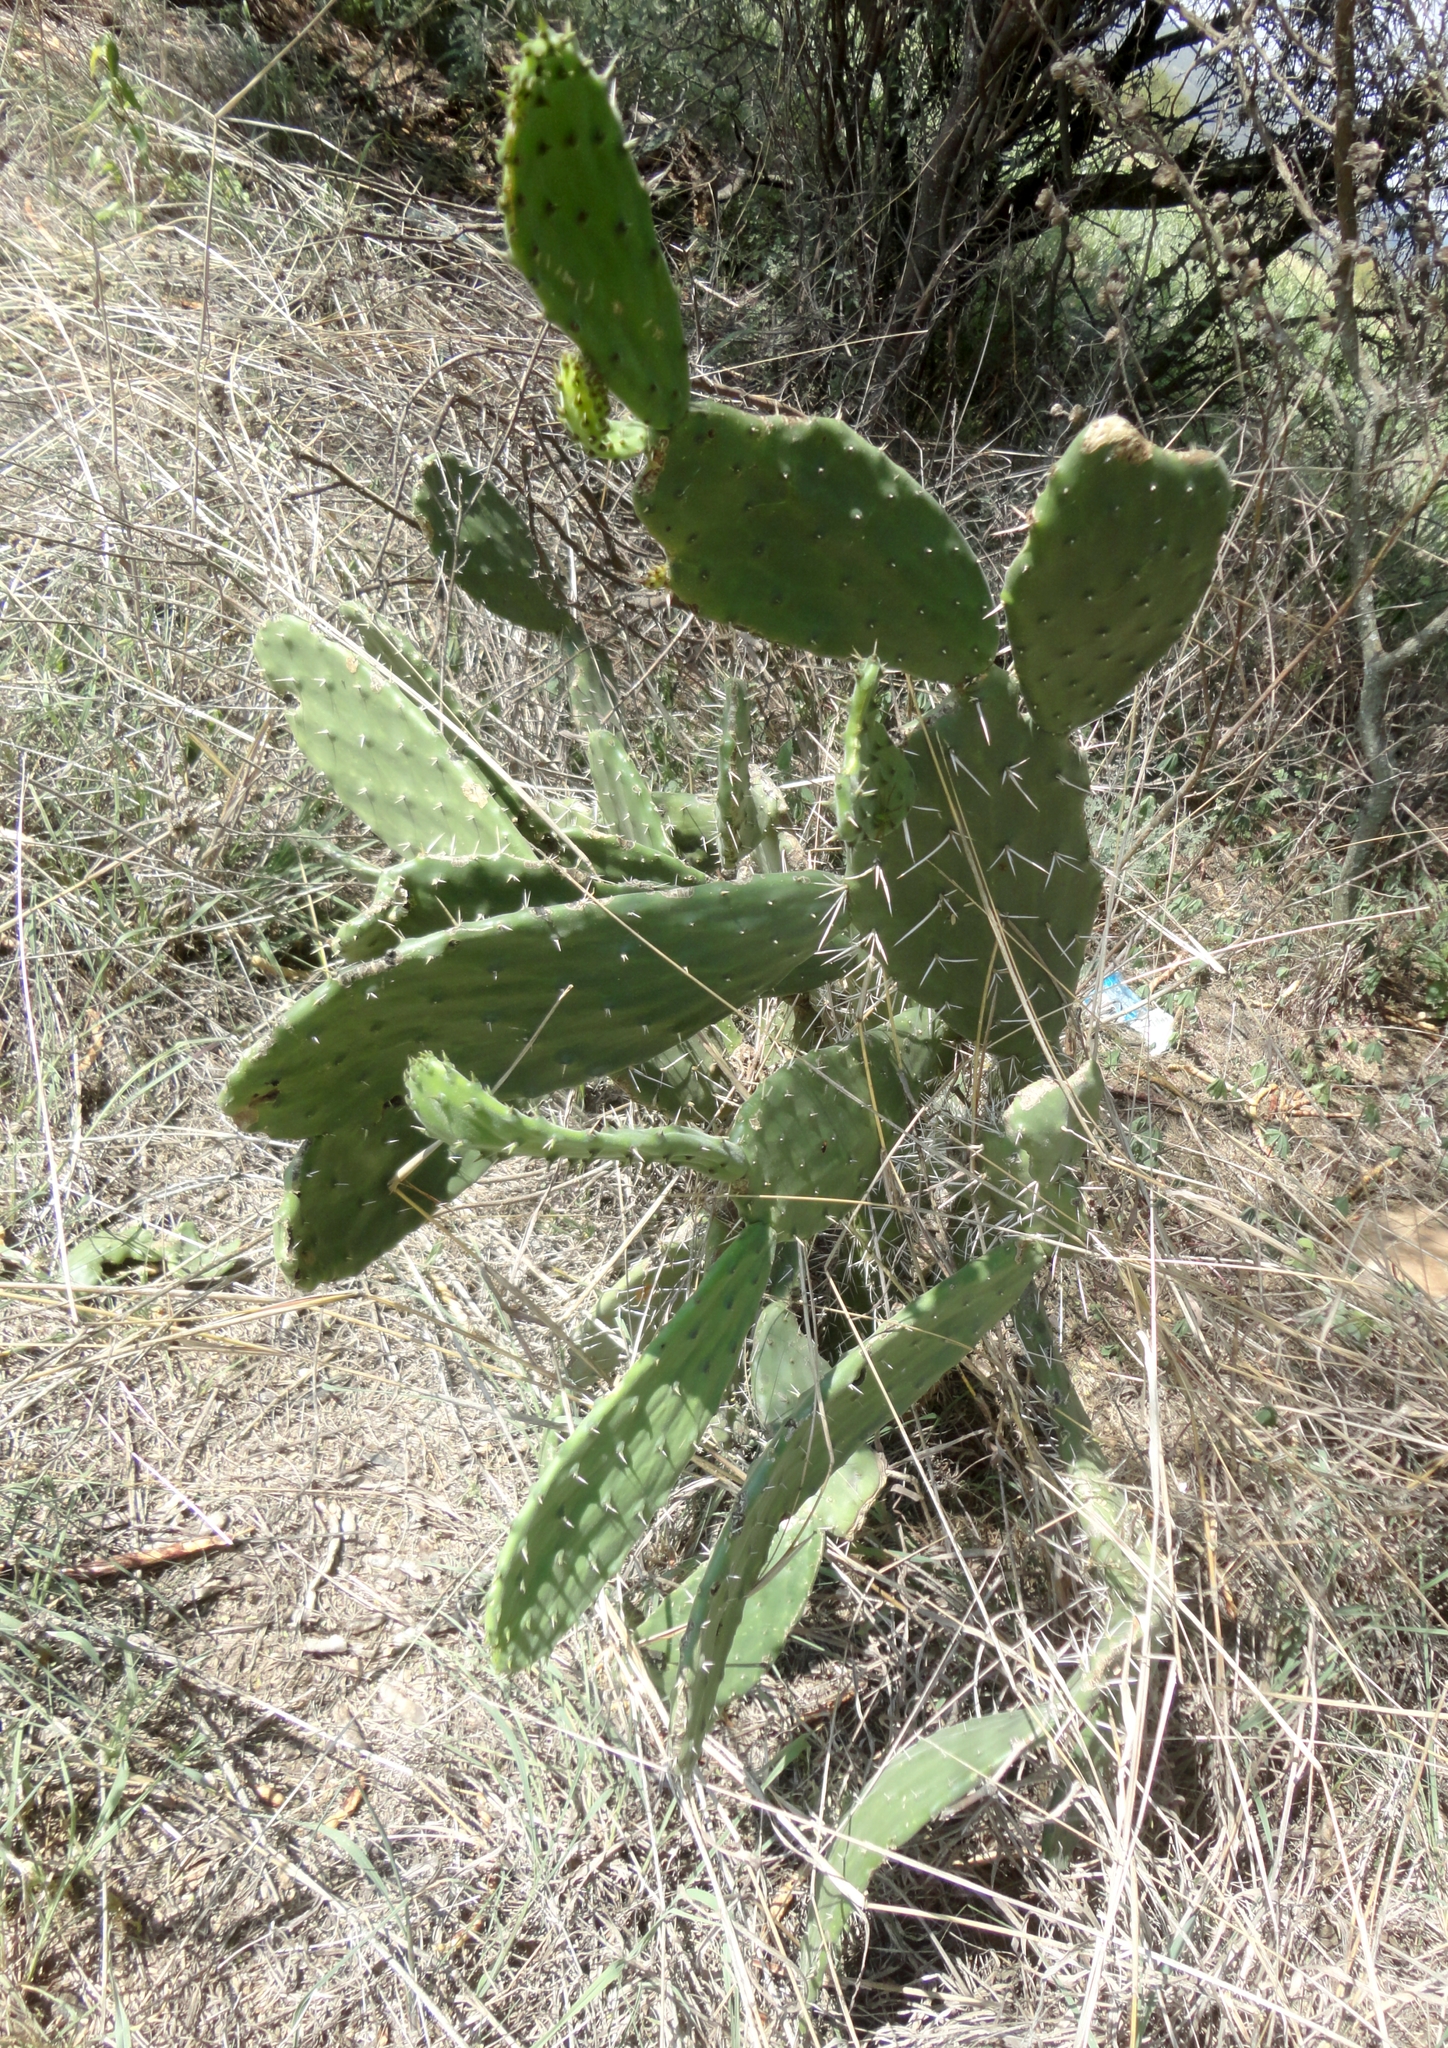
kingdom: Plantae
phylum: Tracheophyta
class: Magnoliopsida
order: Caryophyllales
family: Cactaceae
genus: Opuntia
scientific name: Opuntia tomentosa
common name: Woollyjoint pricklypear
